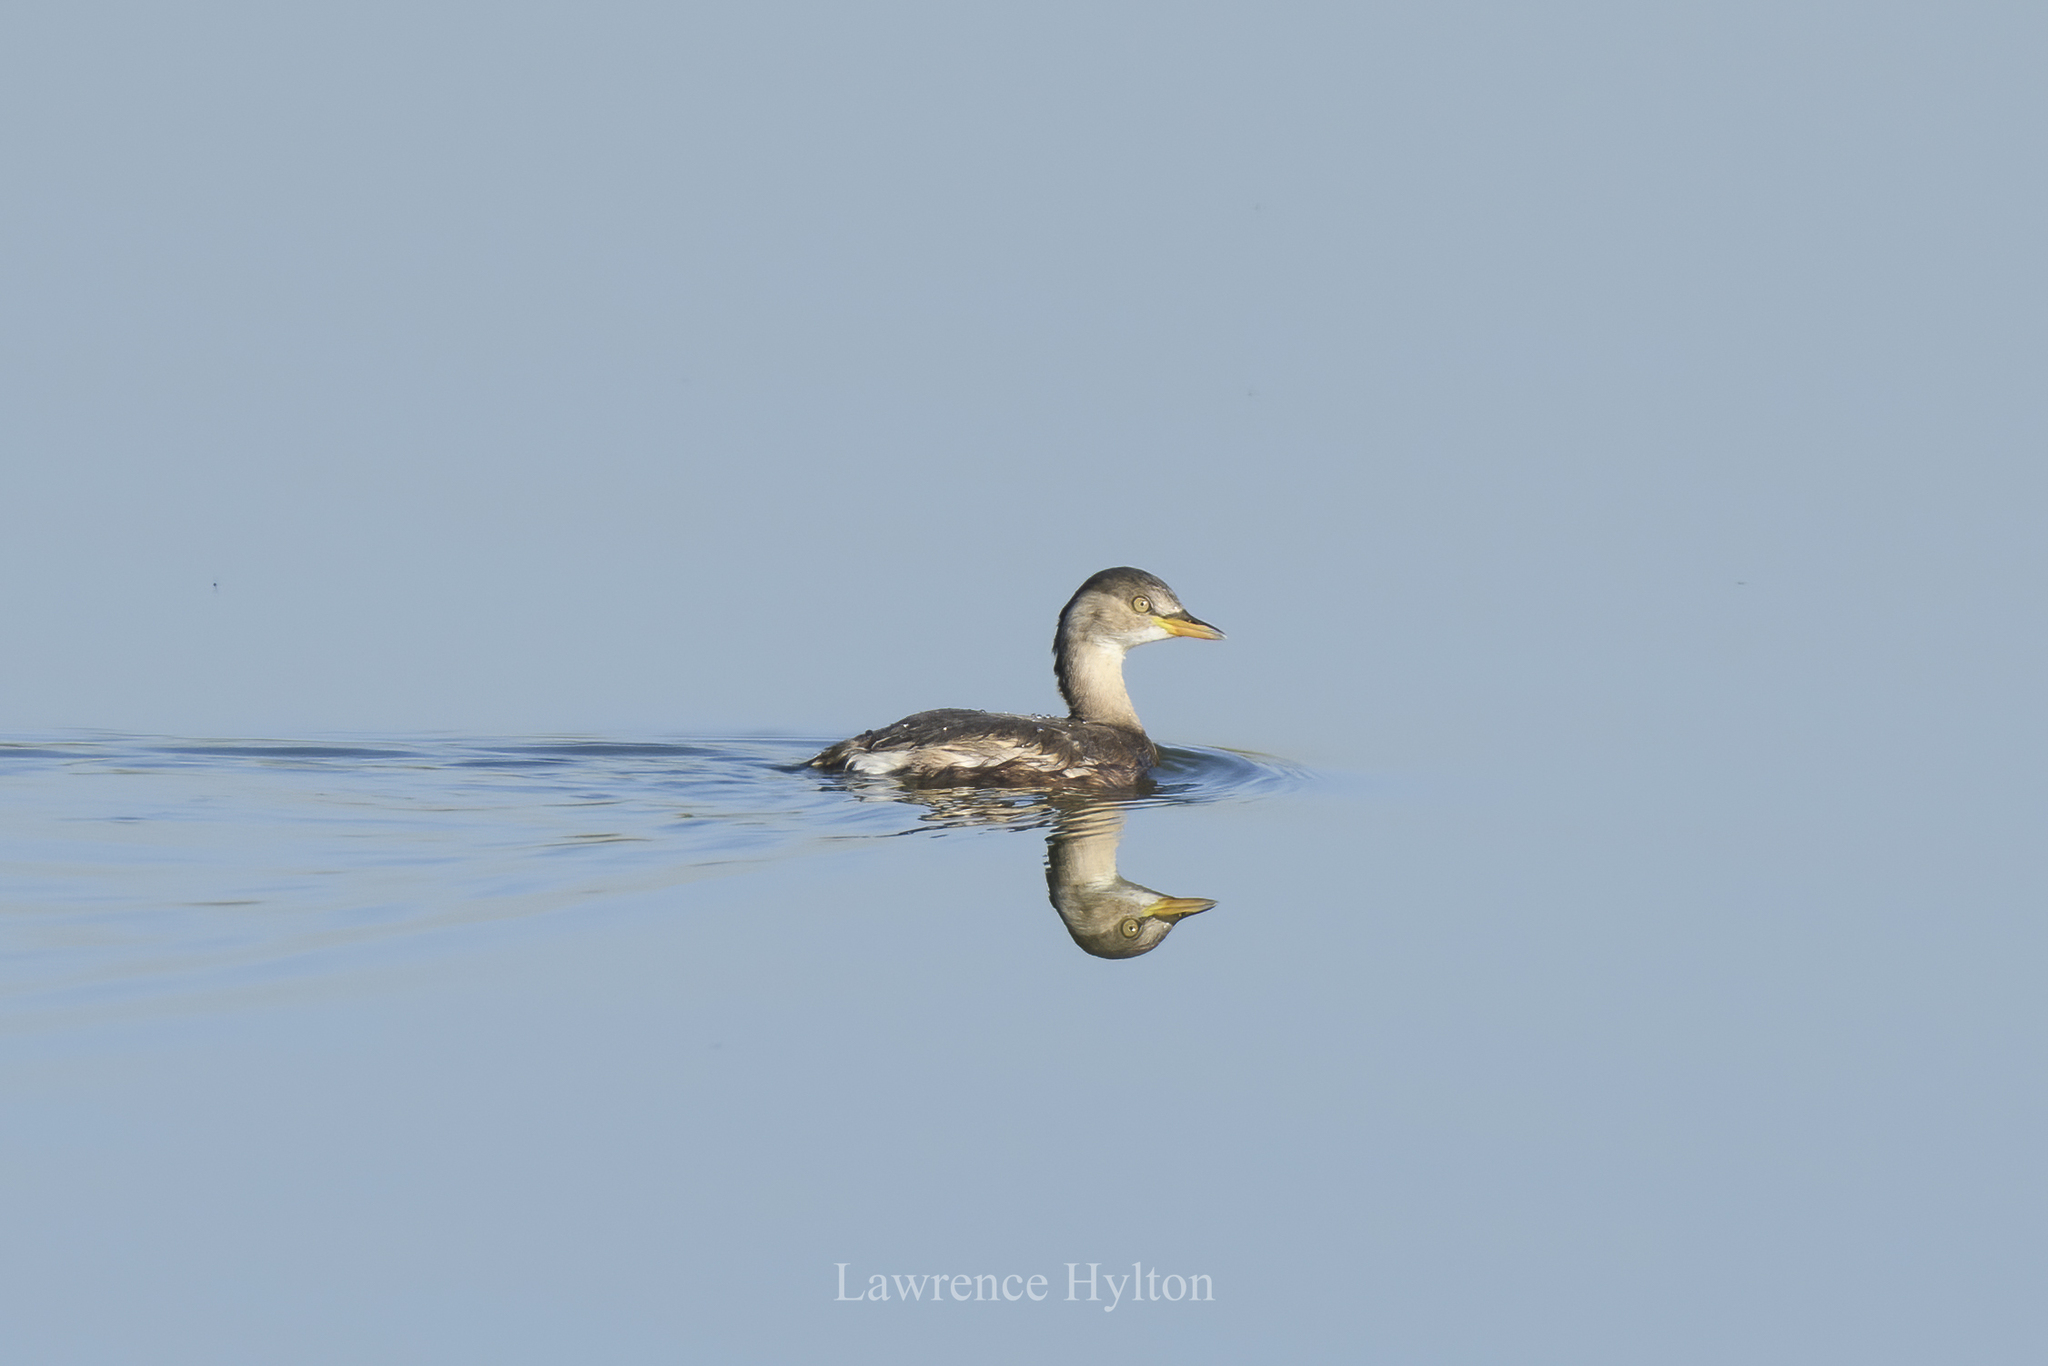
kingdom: Animalia
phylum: Chordata
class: Aves
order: Podicipediformes
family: Podicipedidae
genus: Tachybaptus
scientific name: Tachybaptus ruficollis
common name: Little grebe
